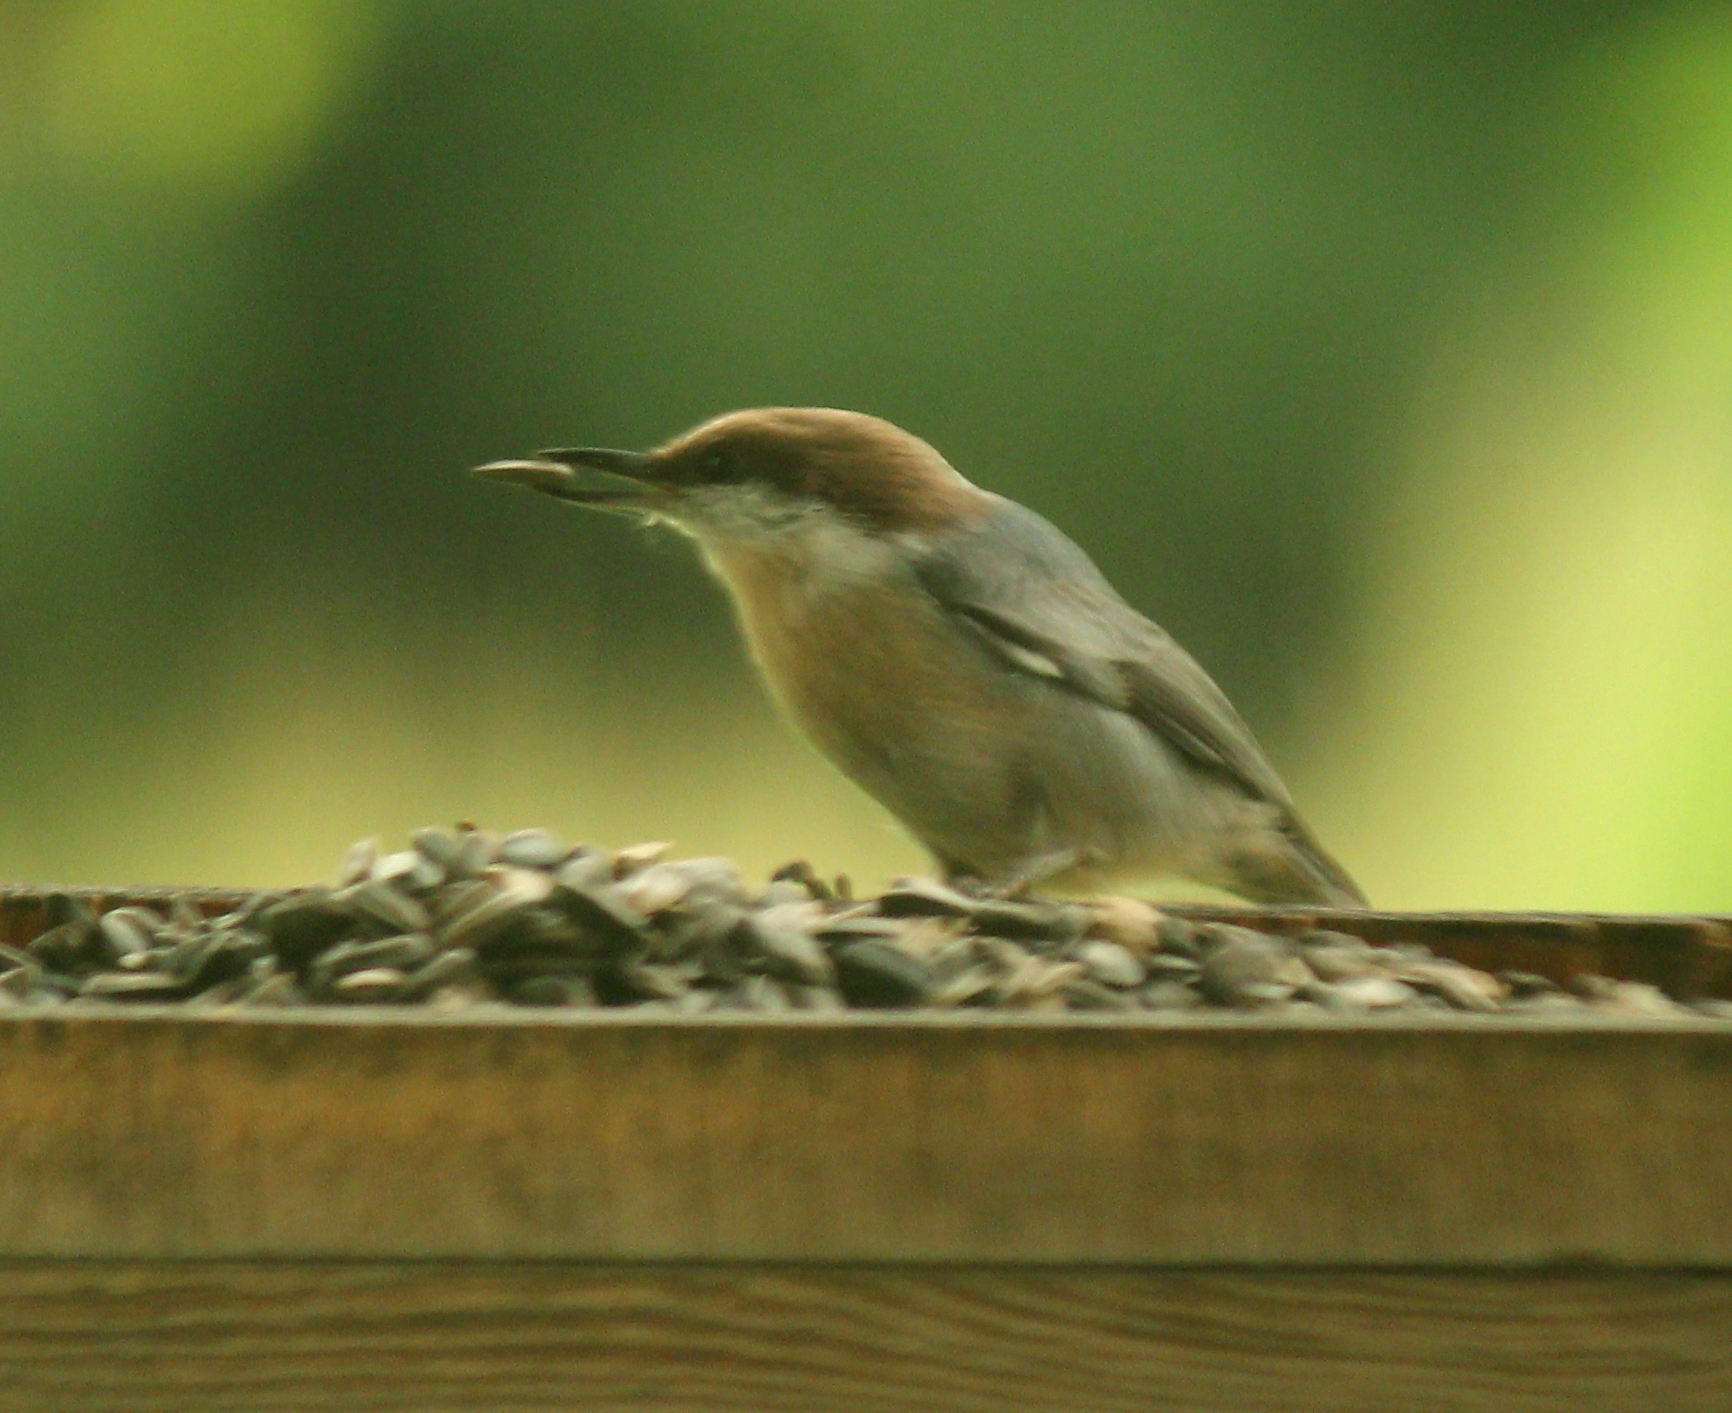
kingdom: Animalia
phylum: Chordata
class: Aves
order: Passeriformes
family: Sittidae
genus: Sitta
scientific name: Sitta pusilla
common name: Brown-headed nuthatch
